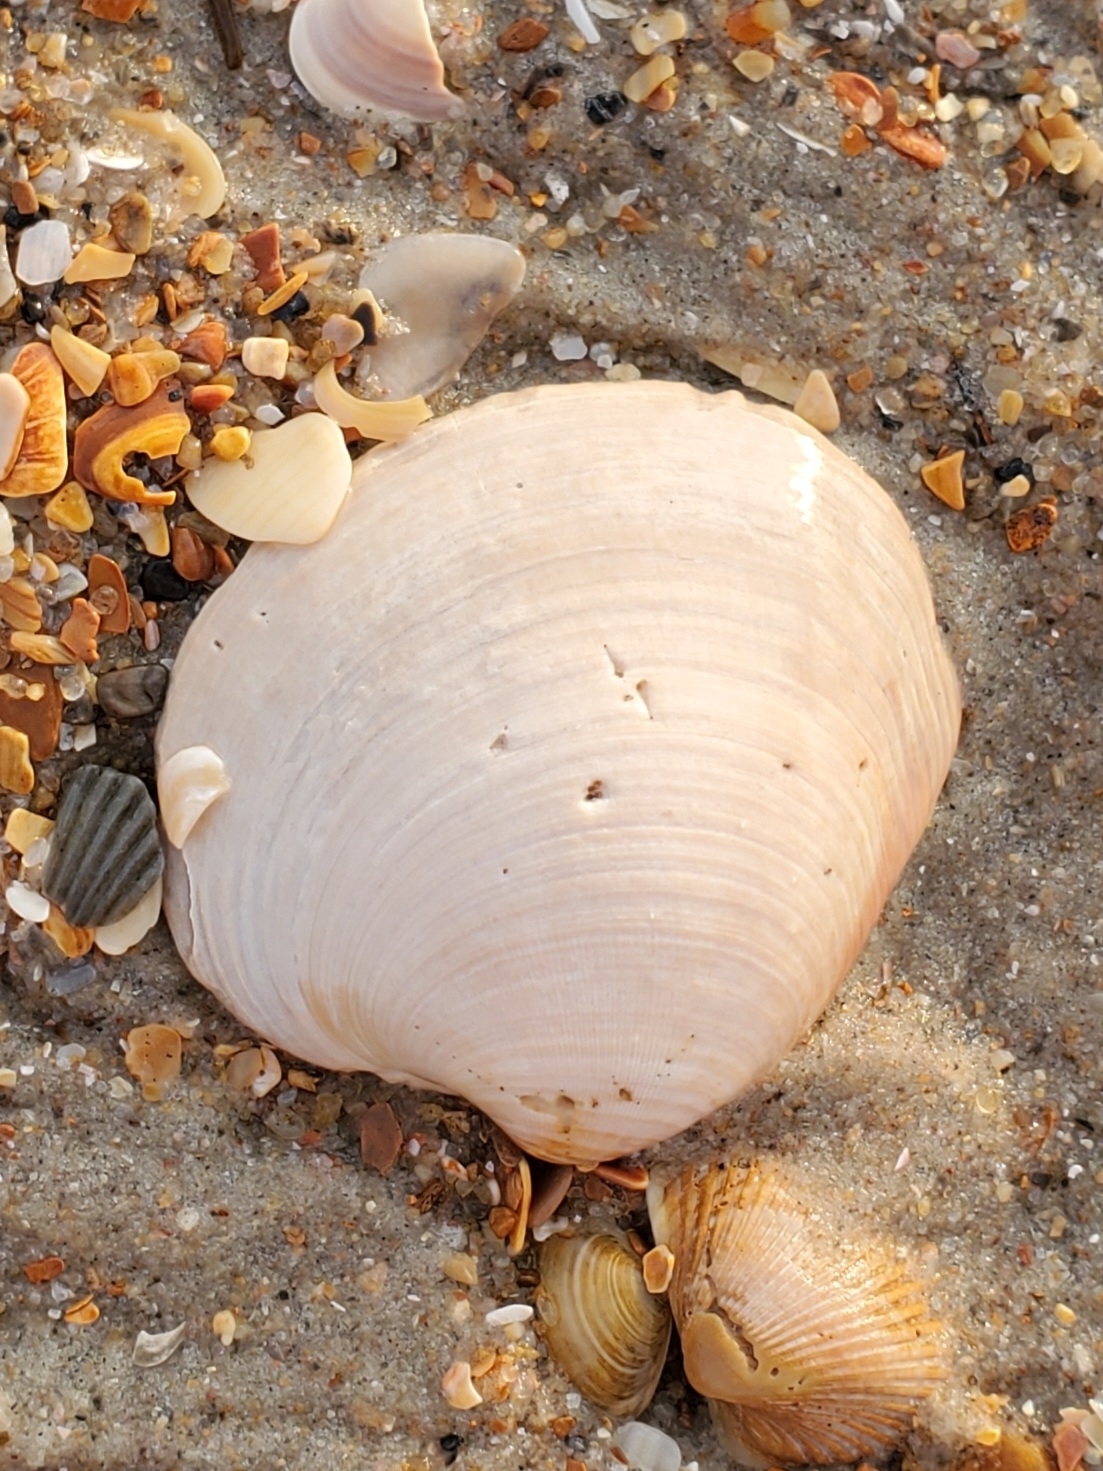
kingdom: Animalia
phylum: Mollusca
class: Bivalvia
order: Venerida
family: Veneridae
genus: Mercenaria
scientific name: Mercenaria mercenaria
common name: American hard-shelled clam
